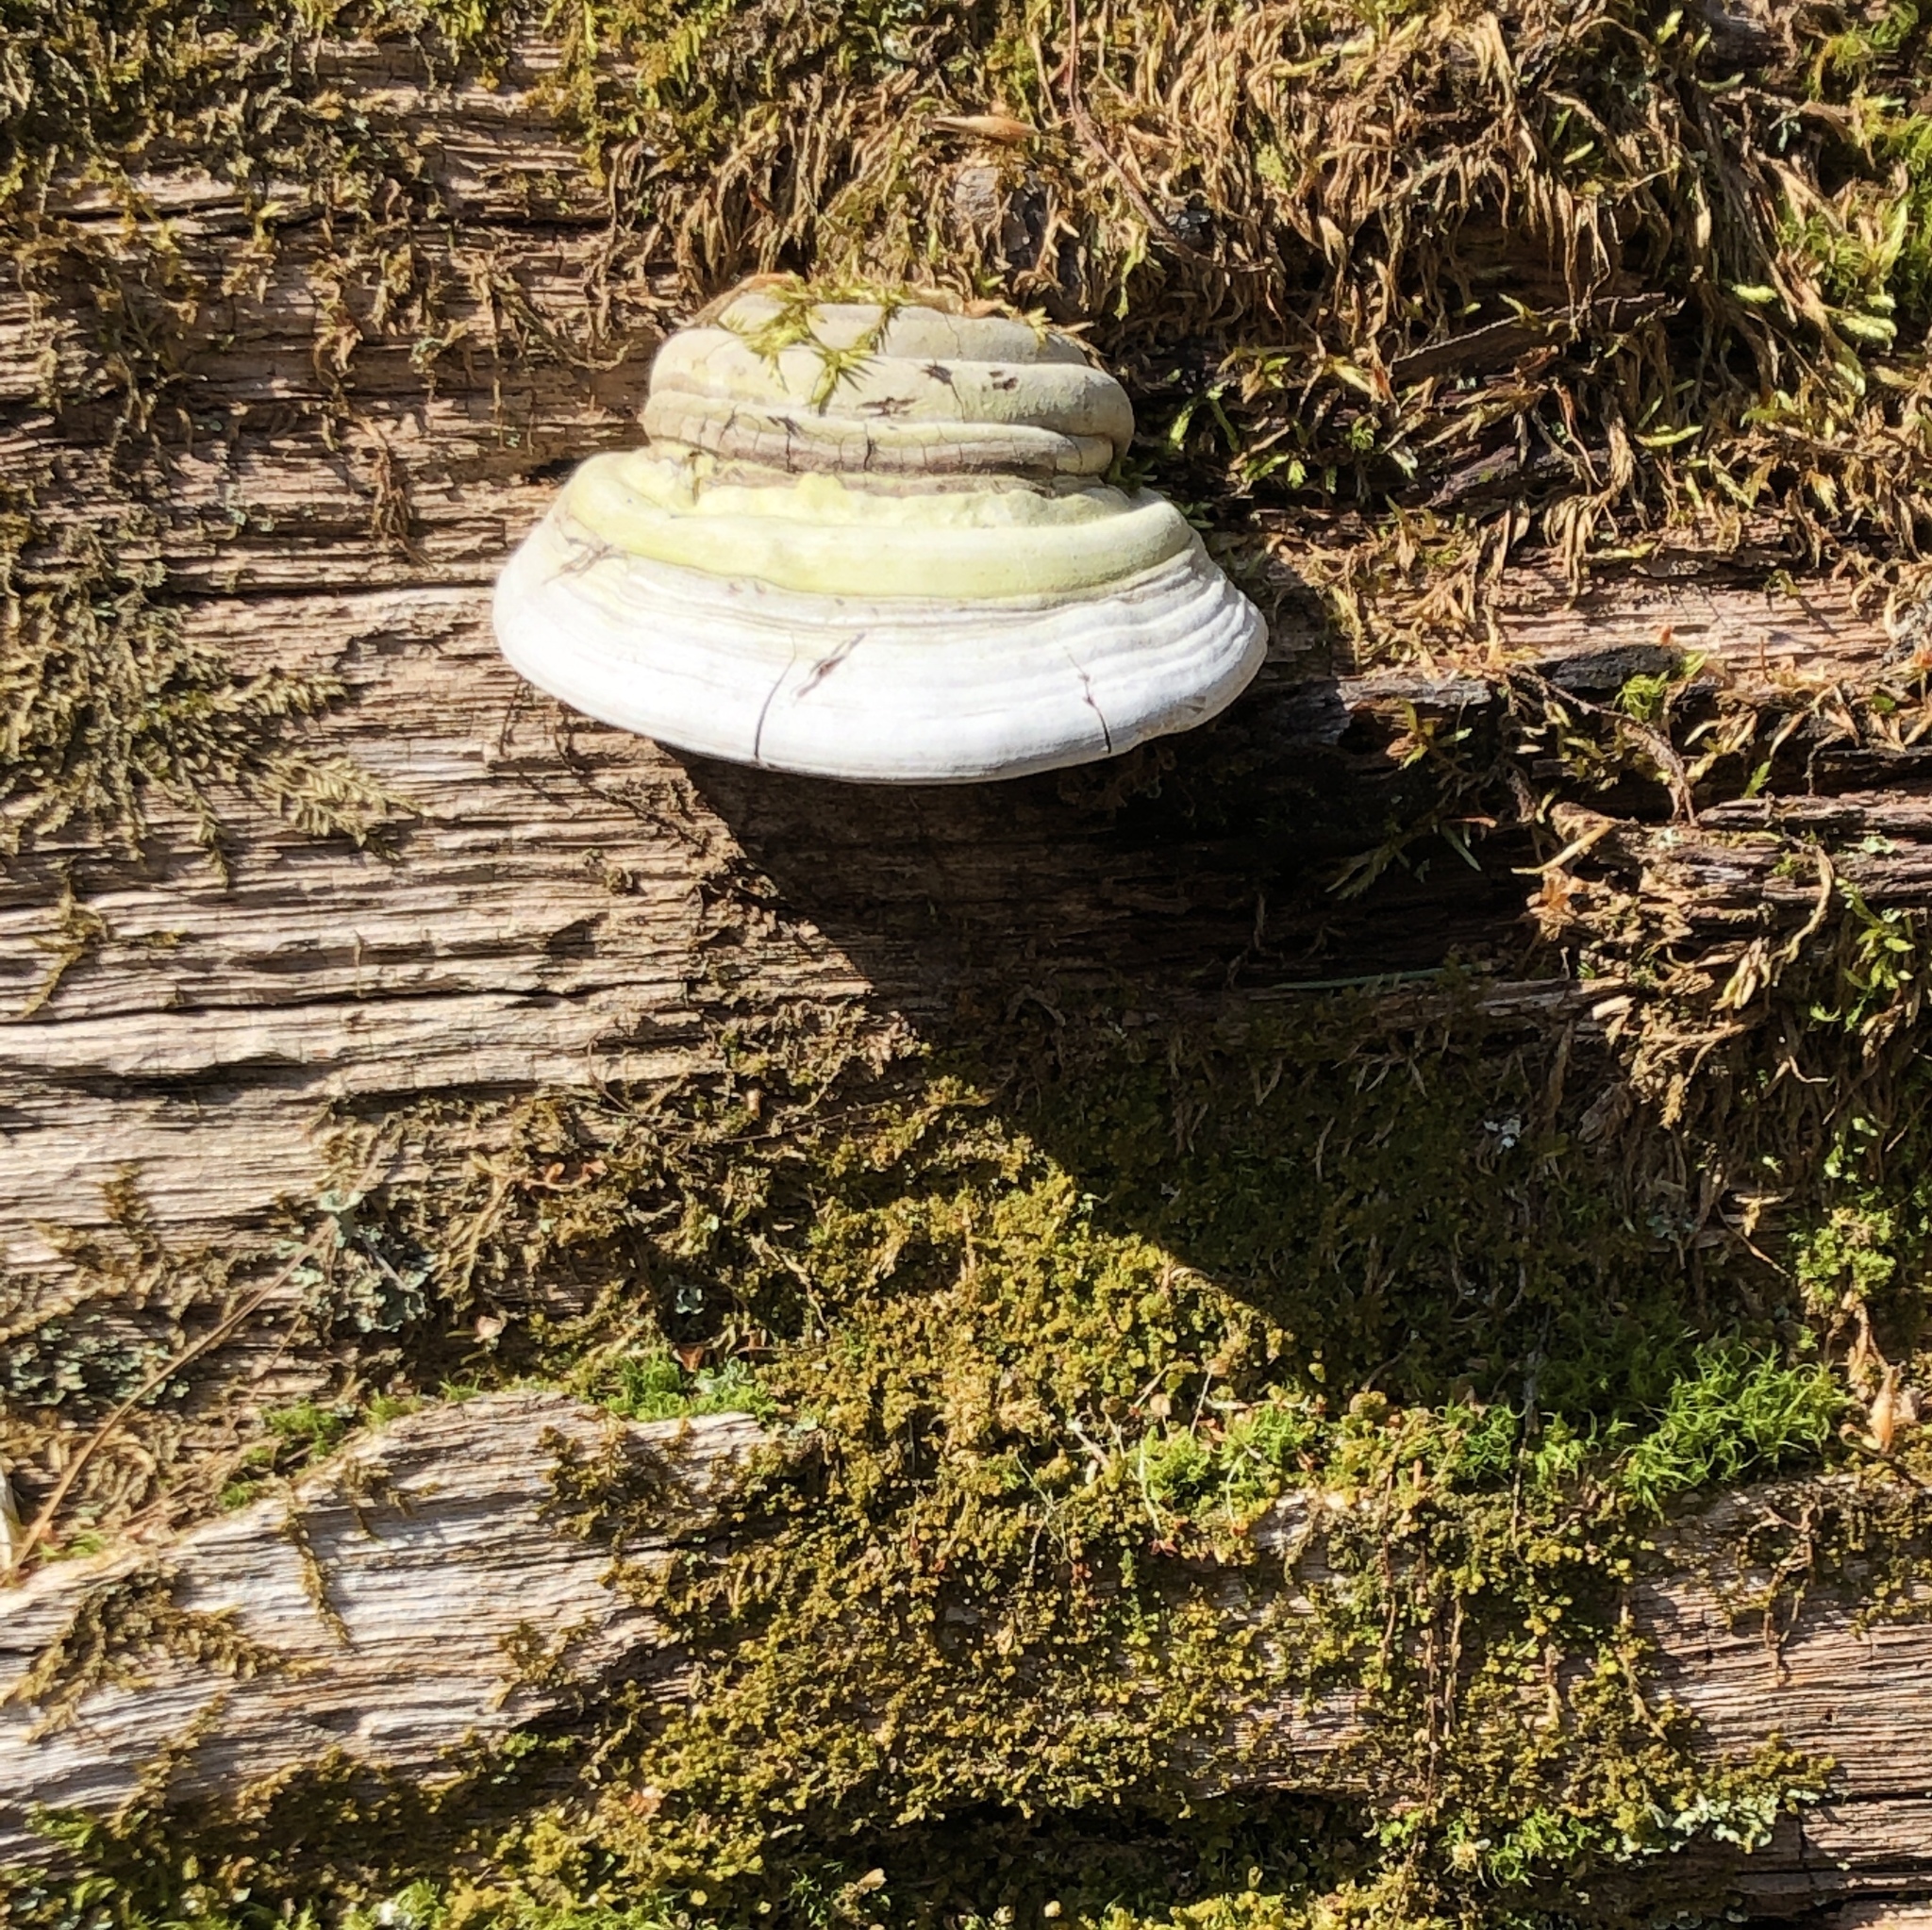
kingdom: Fungi
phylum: Basidiomycota
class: Agaricomycetes
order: Polyporales
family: Polyporaceae
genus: Fomes
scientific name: Fomes fomentarius
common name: Hoof fungus
